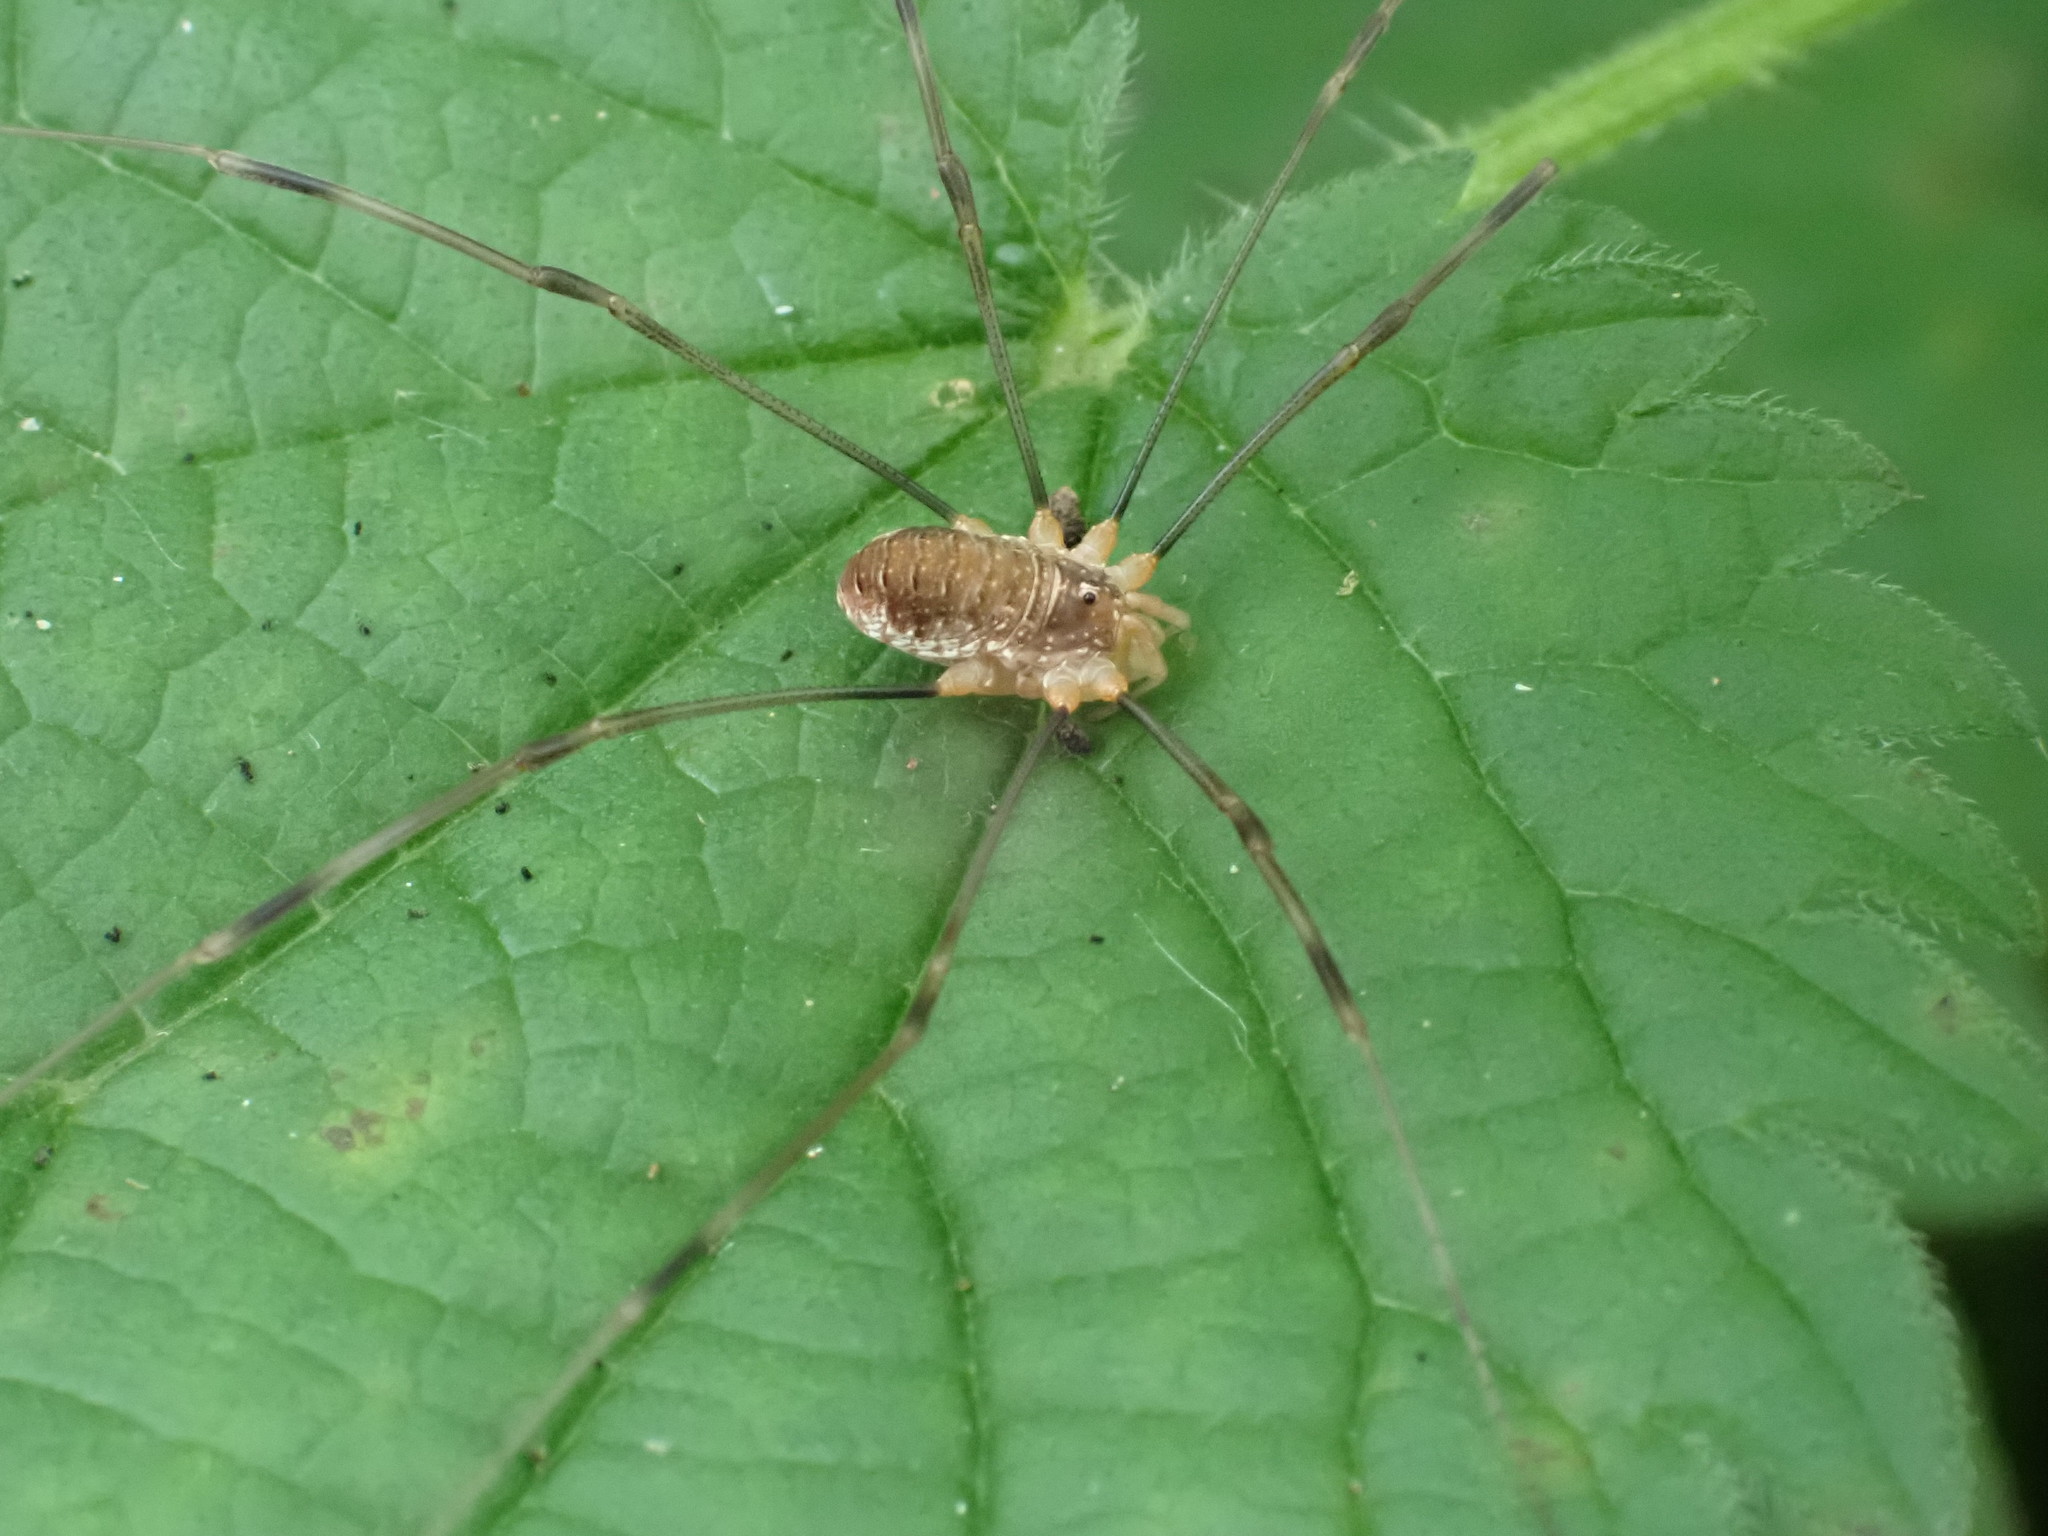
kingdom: Animalia
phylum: Arthropoda
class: Arachnida
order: Opiliones
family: Phalangiidae
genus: Opilio
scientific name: Opilio canestrinii
